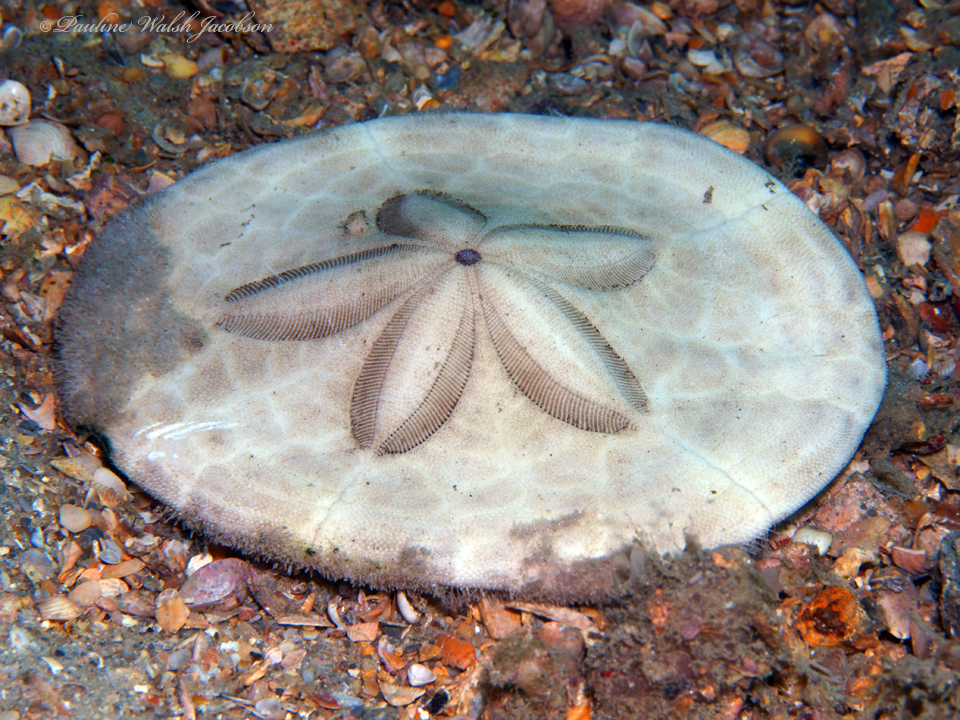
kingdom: Animalia
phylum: Echinodermata
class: Echinoidea
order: Clypeasteroida
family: Clypeasteridae
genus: Clypeaster
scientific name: Clypeaster subdepressus
